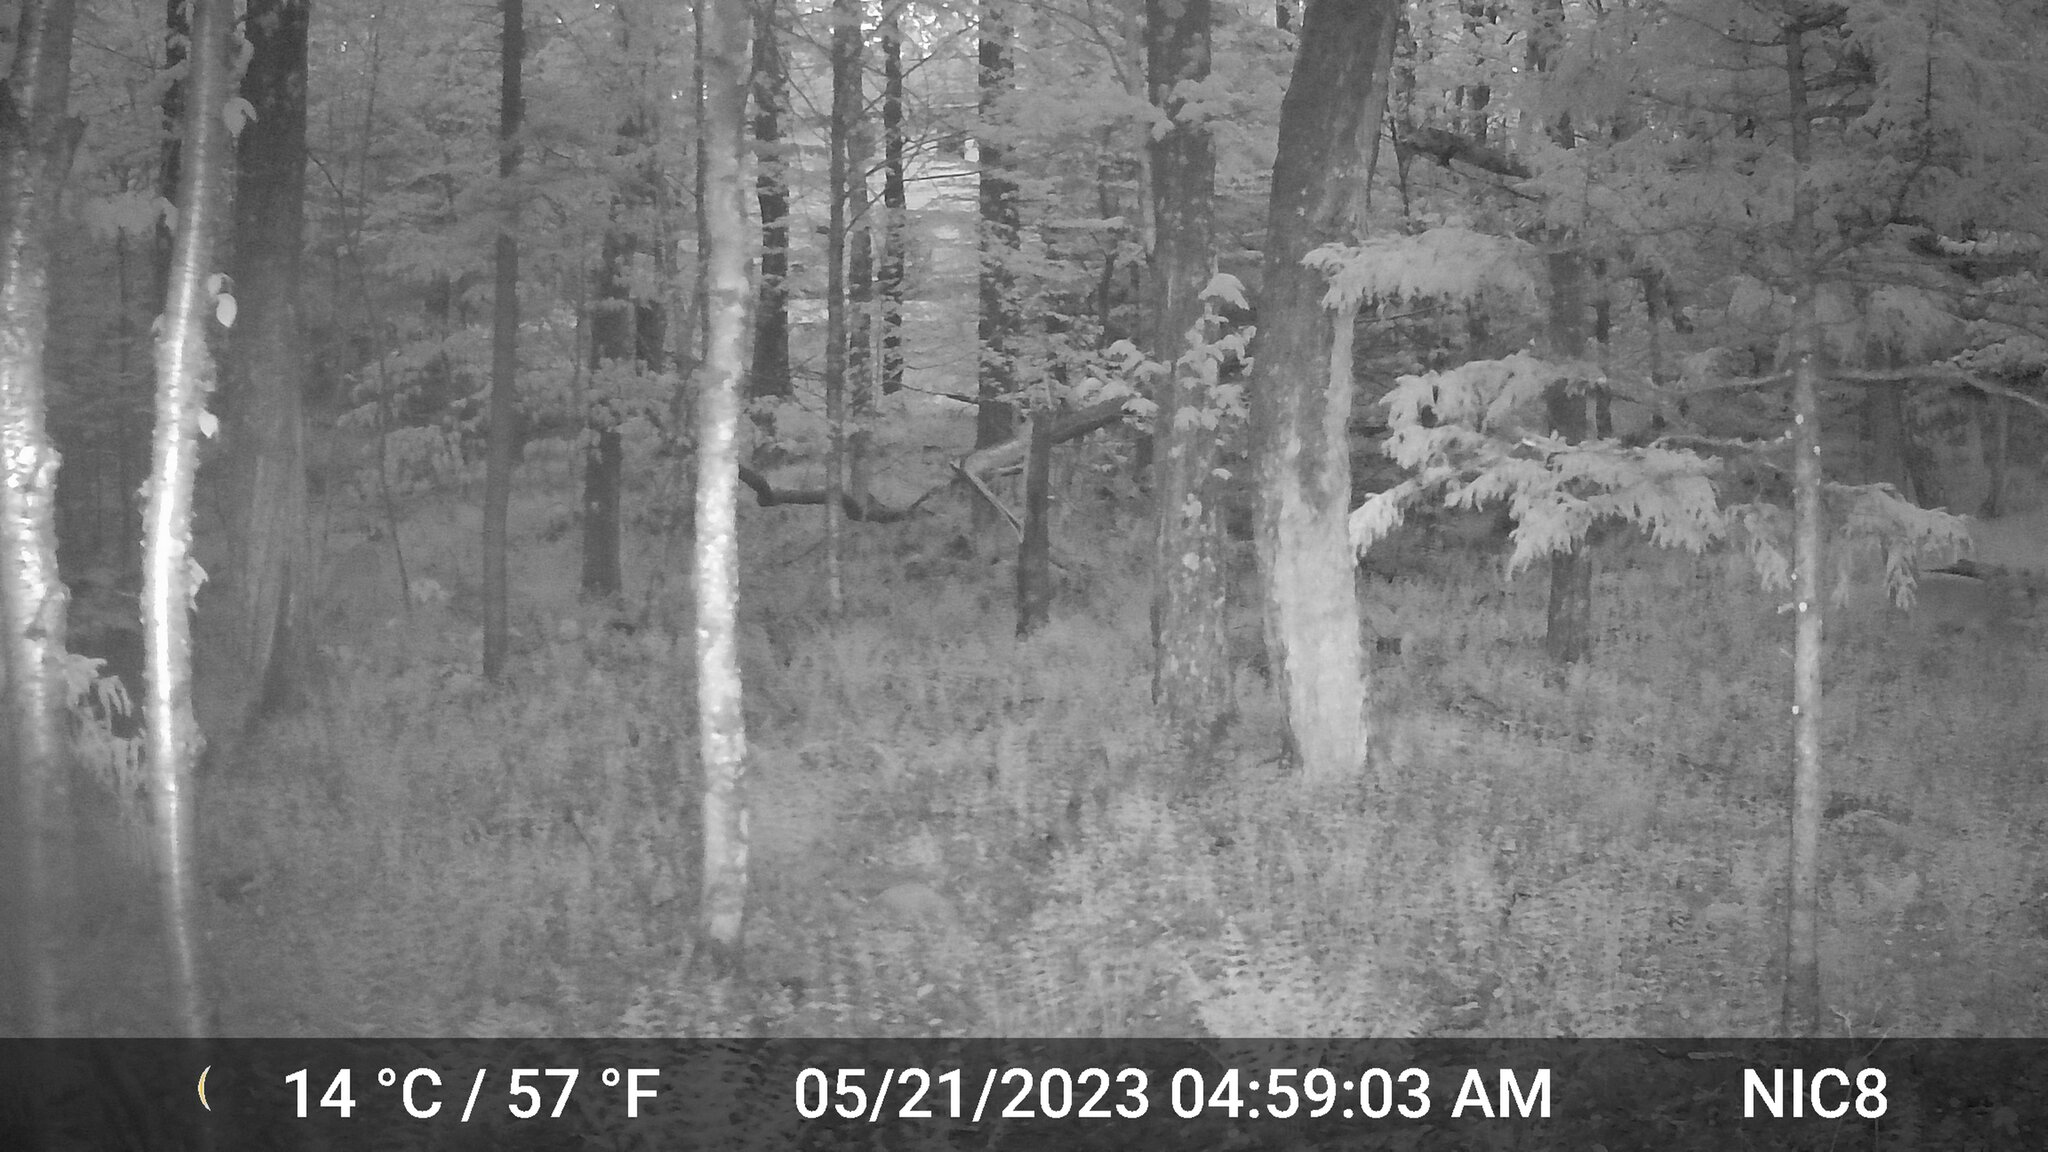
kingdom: Animalia
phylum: Chordata
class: Mammalia
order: Artiodactyla
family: Cervidae
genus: Odocoileus
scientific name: Odocoileus virginianus
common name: White-tailed deer
